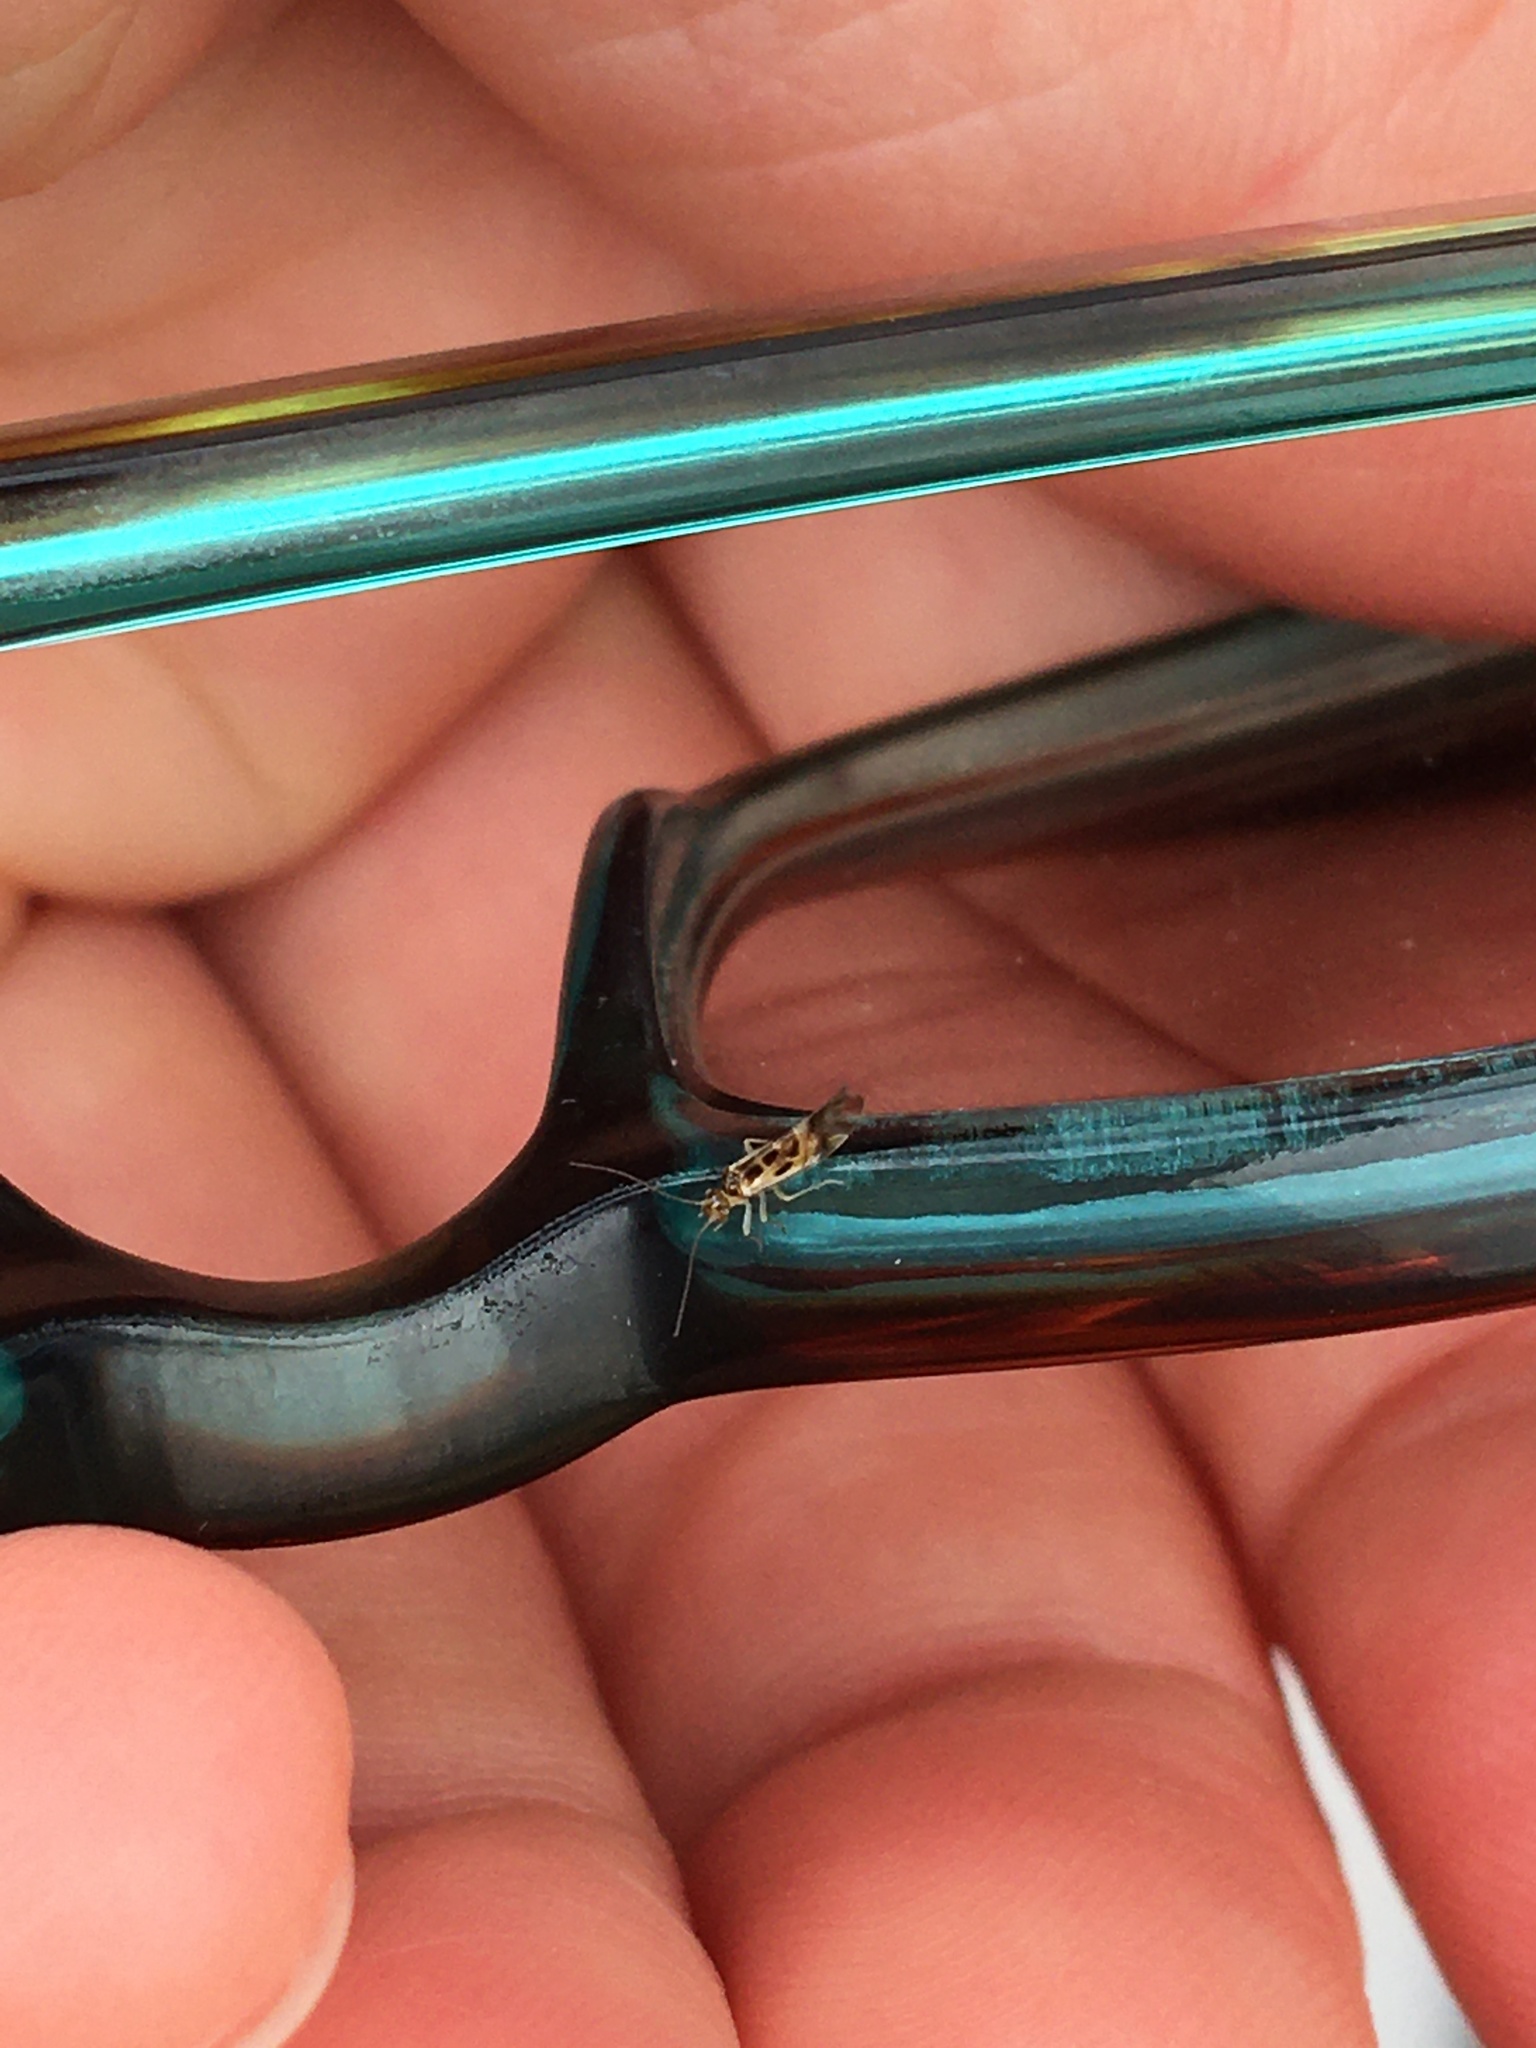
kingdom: Animalia
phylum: Arthropoda
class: Insecta
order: Psocodea
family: Stenopsocidae
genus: Graphopsocus
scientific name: Graphopsocus cruciatus
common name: Lizard bark louse
